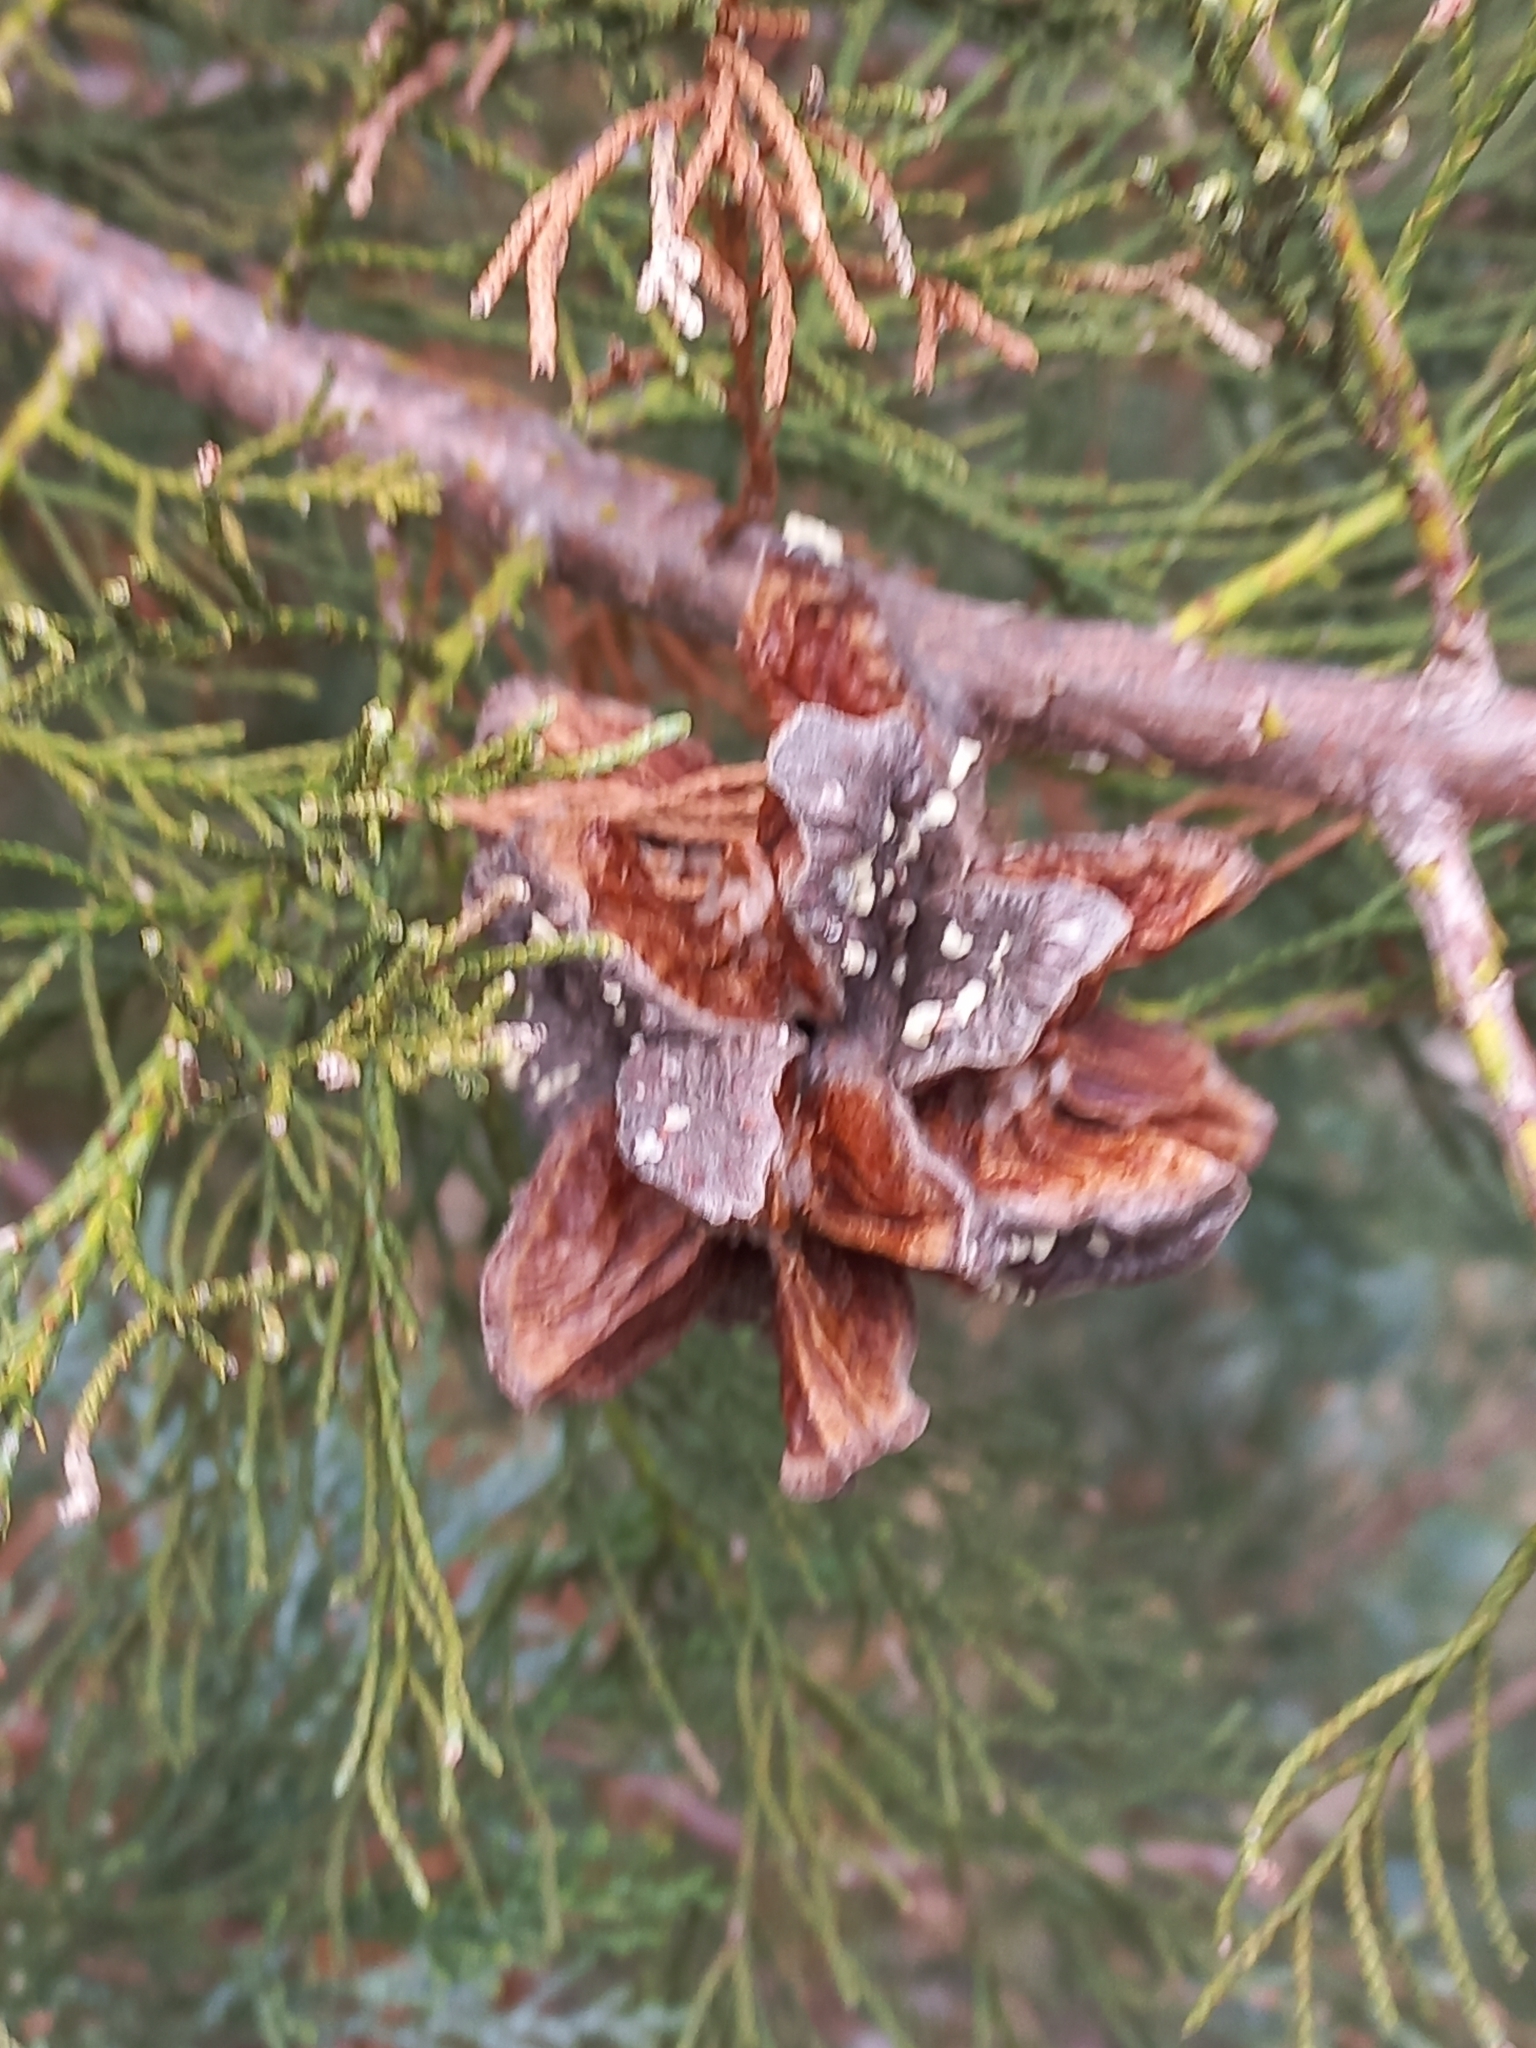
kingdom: Plantae
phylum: Tracheophyta
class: Pinopsida
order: Pinales
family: Cupressaceae
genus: Widdringtonia
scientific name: Widdringtonia nodiflora
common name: Cape cypress
